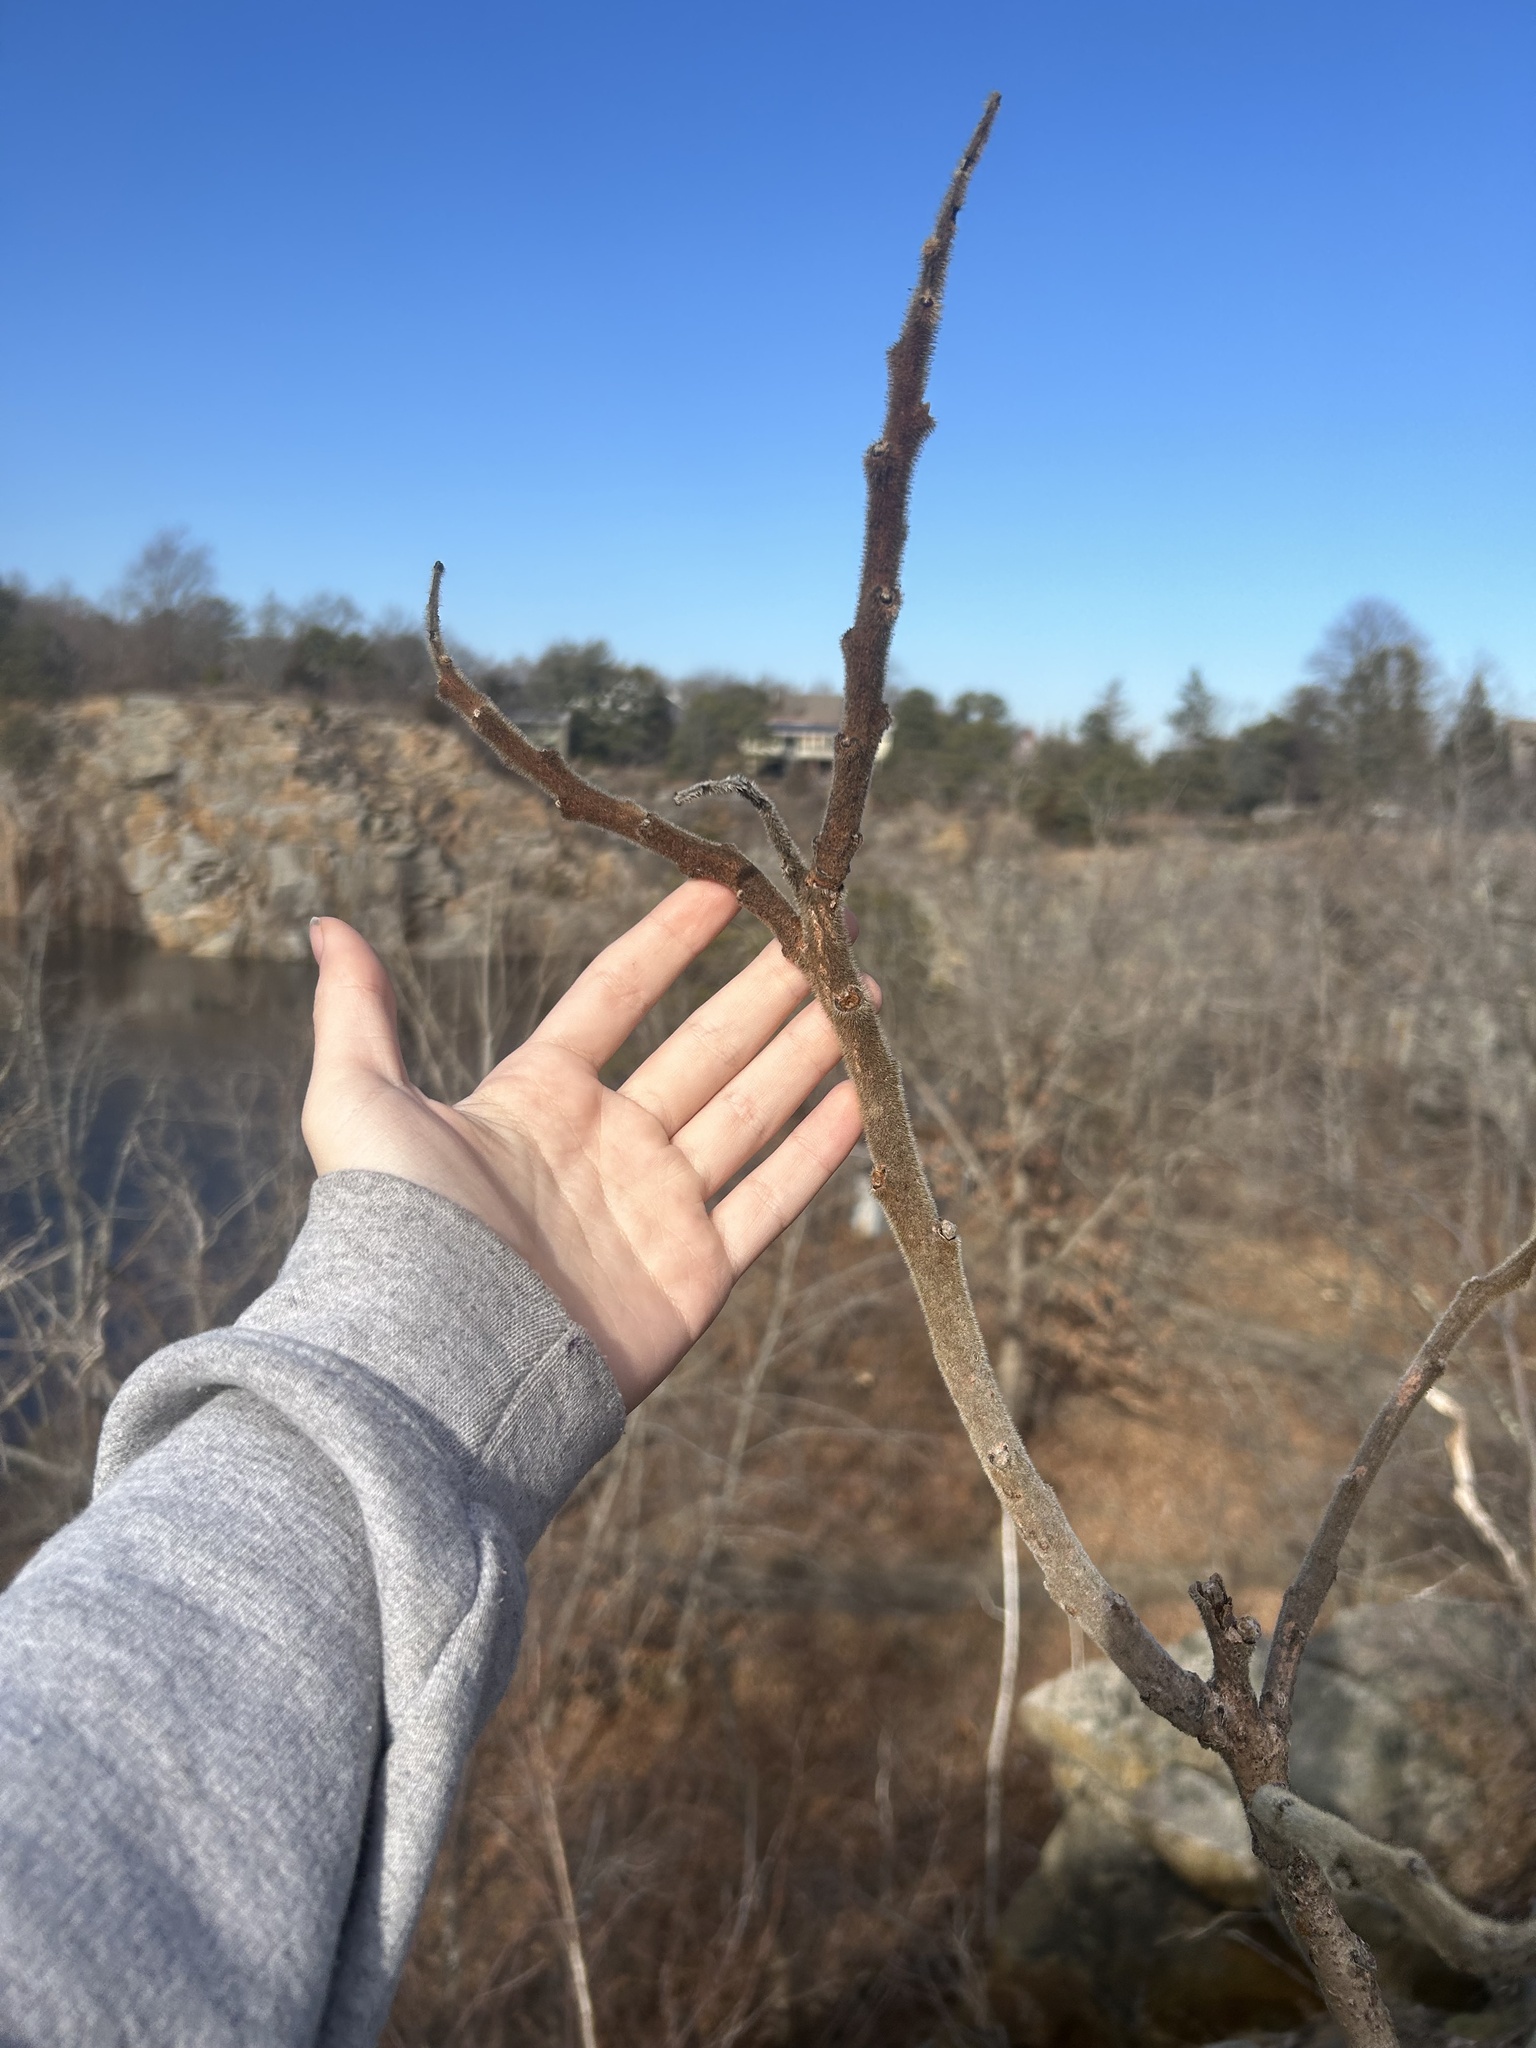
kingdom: Plantae
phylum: Tracheophyta
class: Magnoliopsida
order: Sapindales
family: Anacardiaceae
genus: Rhus
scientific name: Rhus typhina
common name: Staghorn sumac
